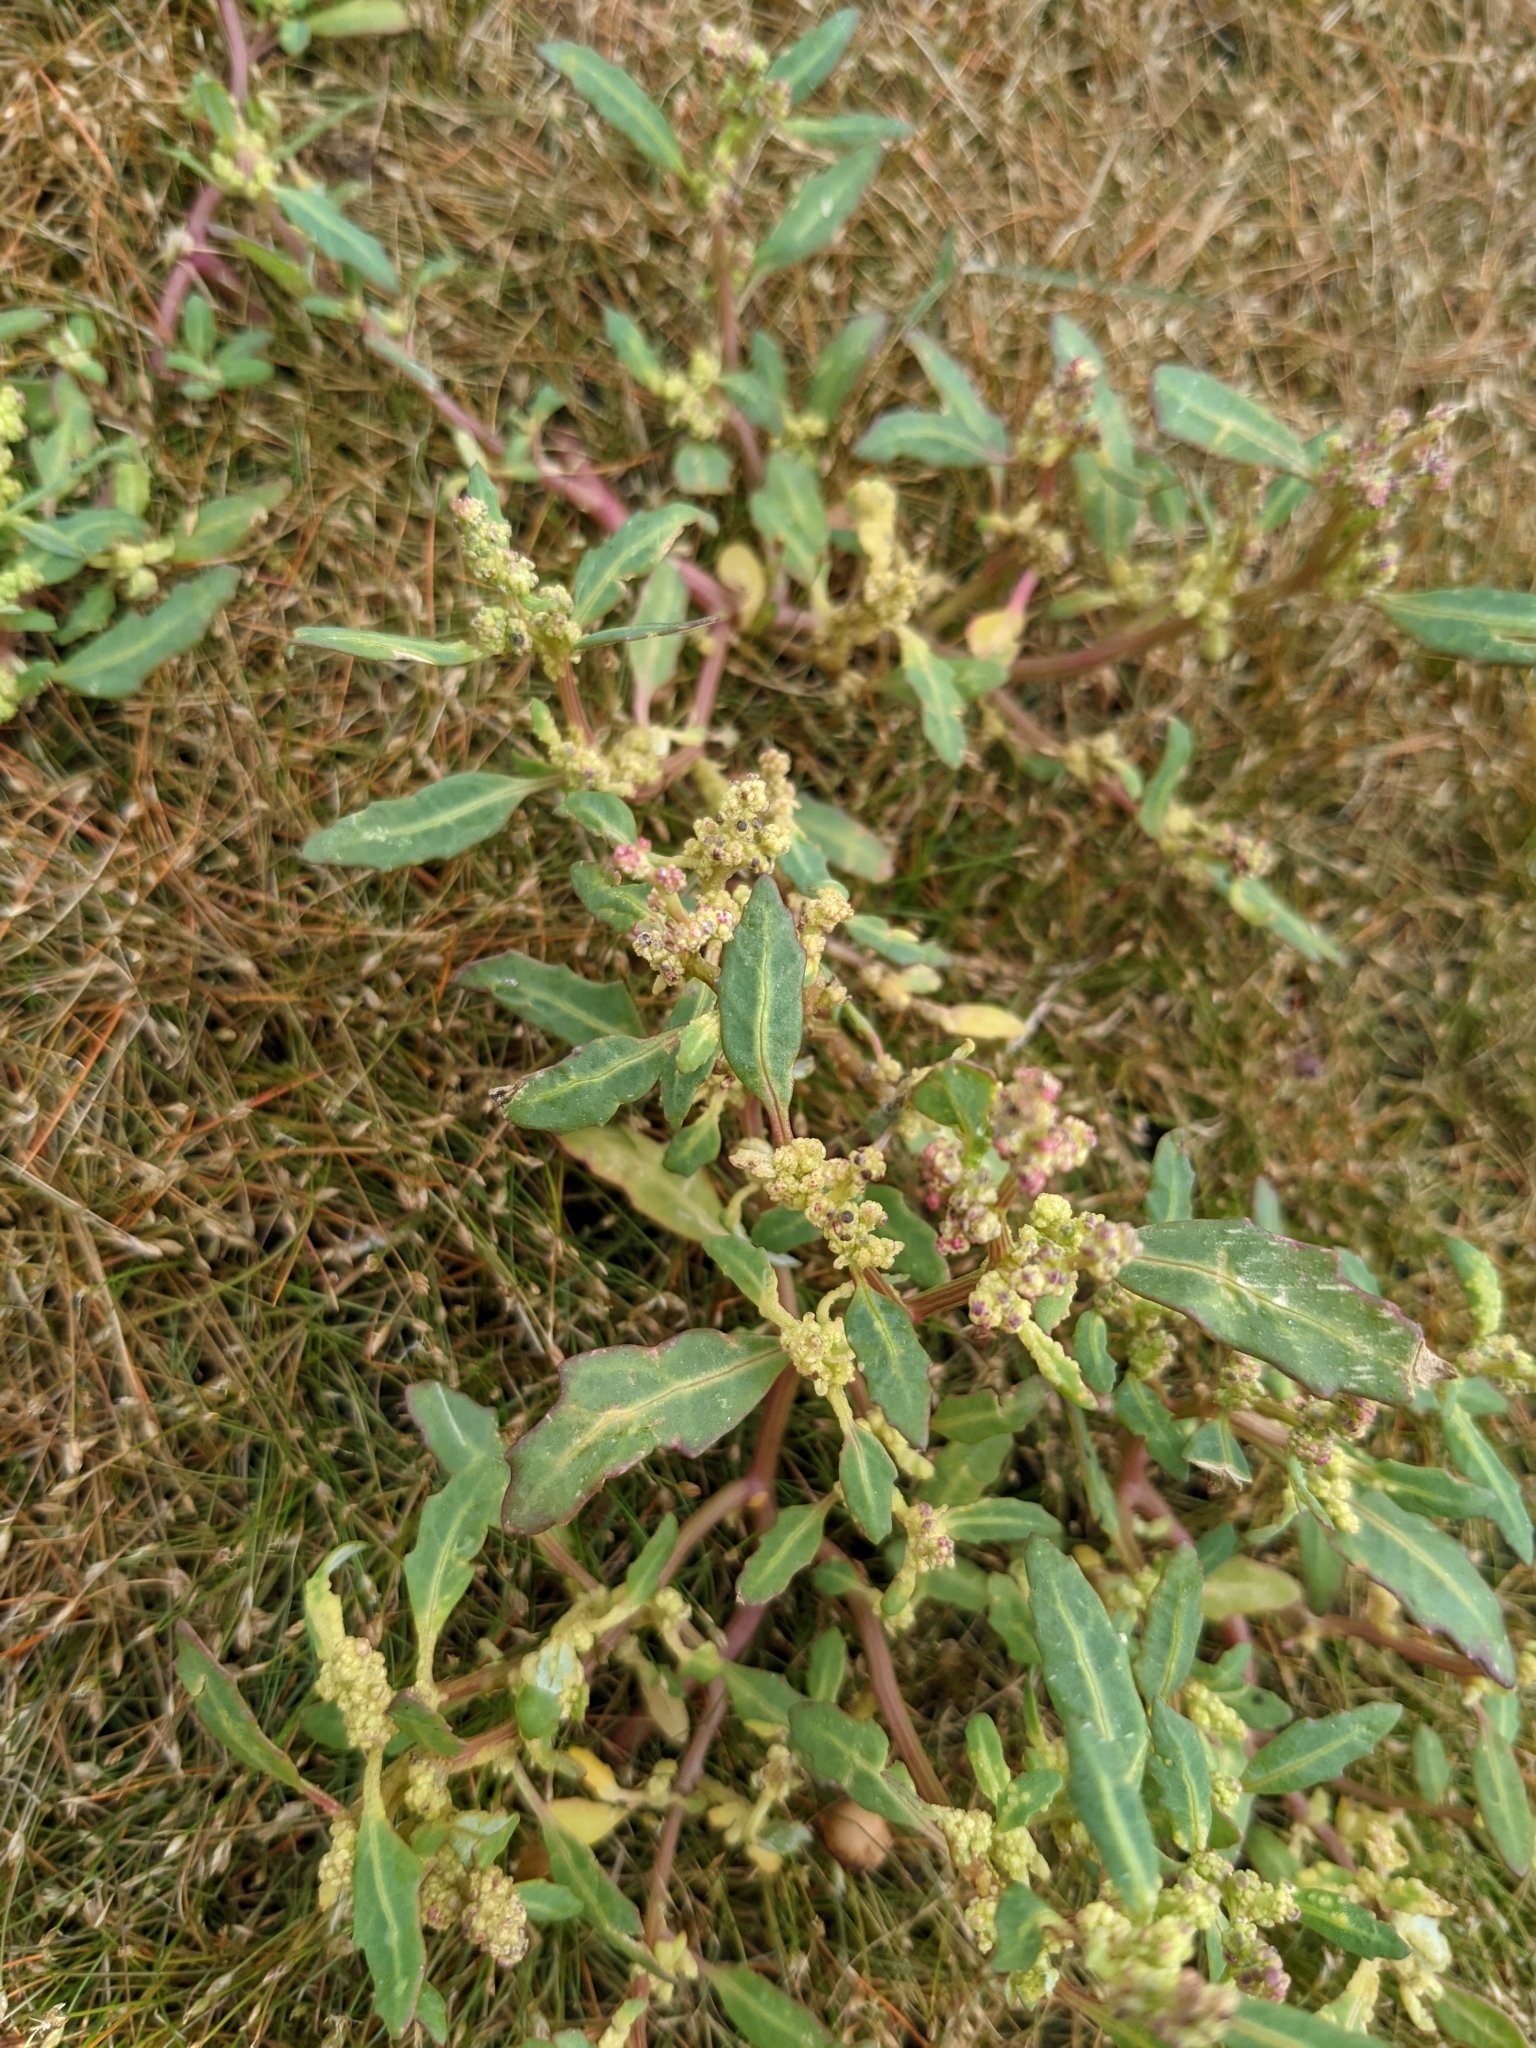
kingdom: Plantae
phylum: Tracheophyta
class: Magnoliopsida
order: Caryophyllales
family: Amaranthaceae
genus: Oxybasis
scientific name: Oxybasis glauca
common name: Glaucous goosefoot
